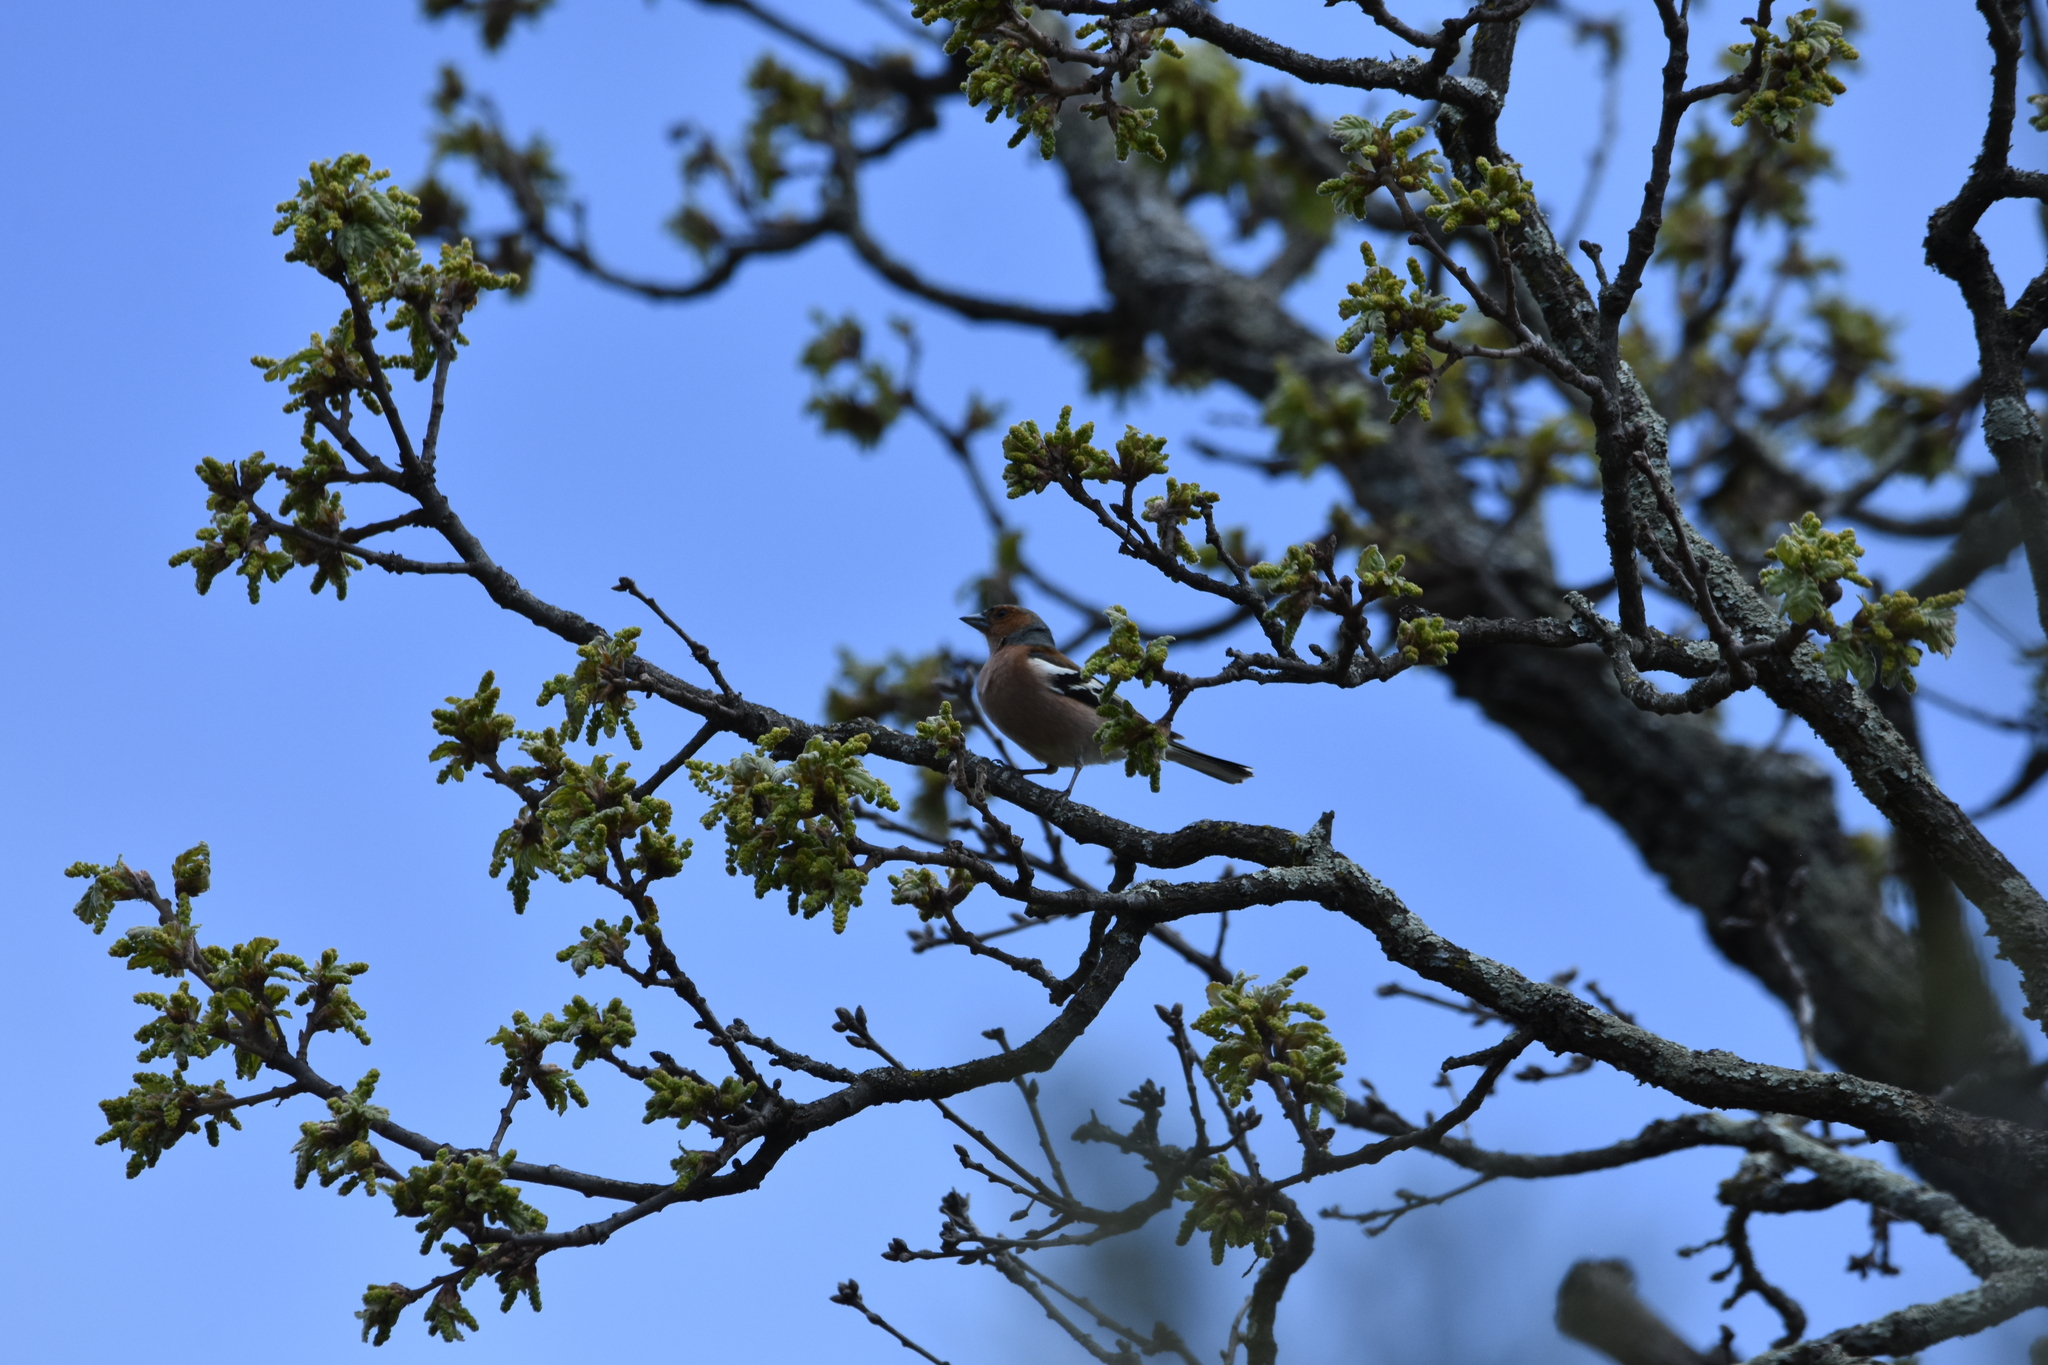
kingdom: Animalia
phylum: Chordata
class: Aves
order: Passeriformes
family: Fringillidae
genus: Fringilla
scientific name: Fringilla coelebs
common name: Common chaffinch
